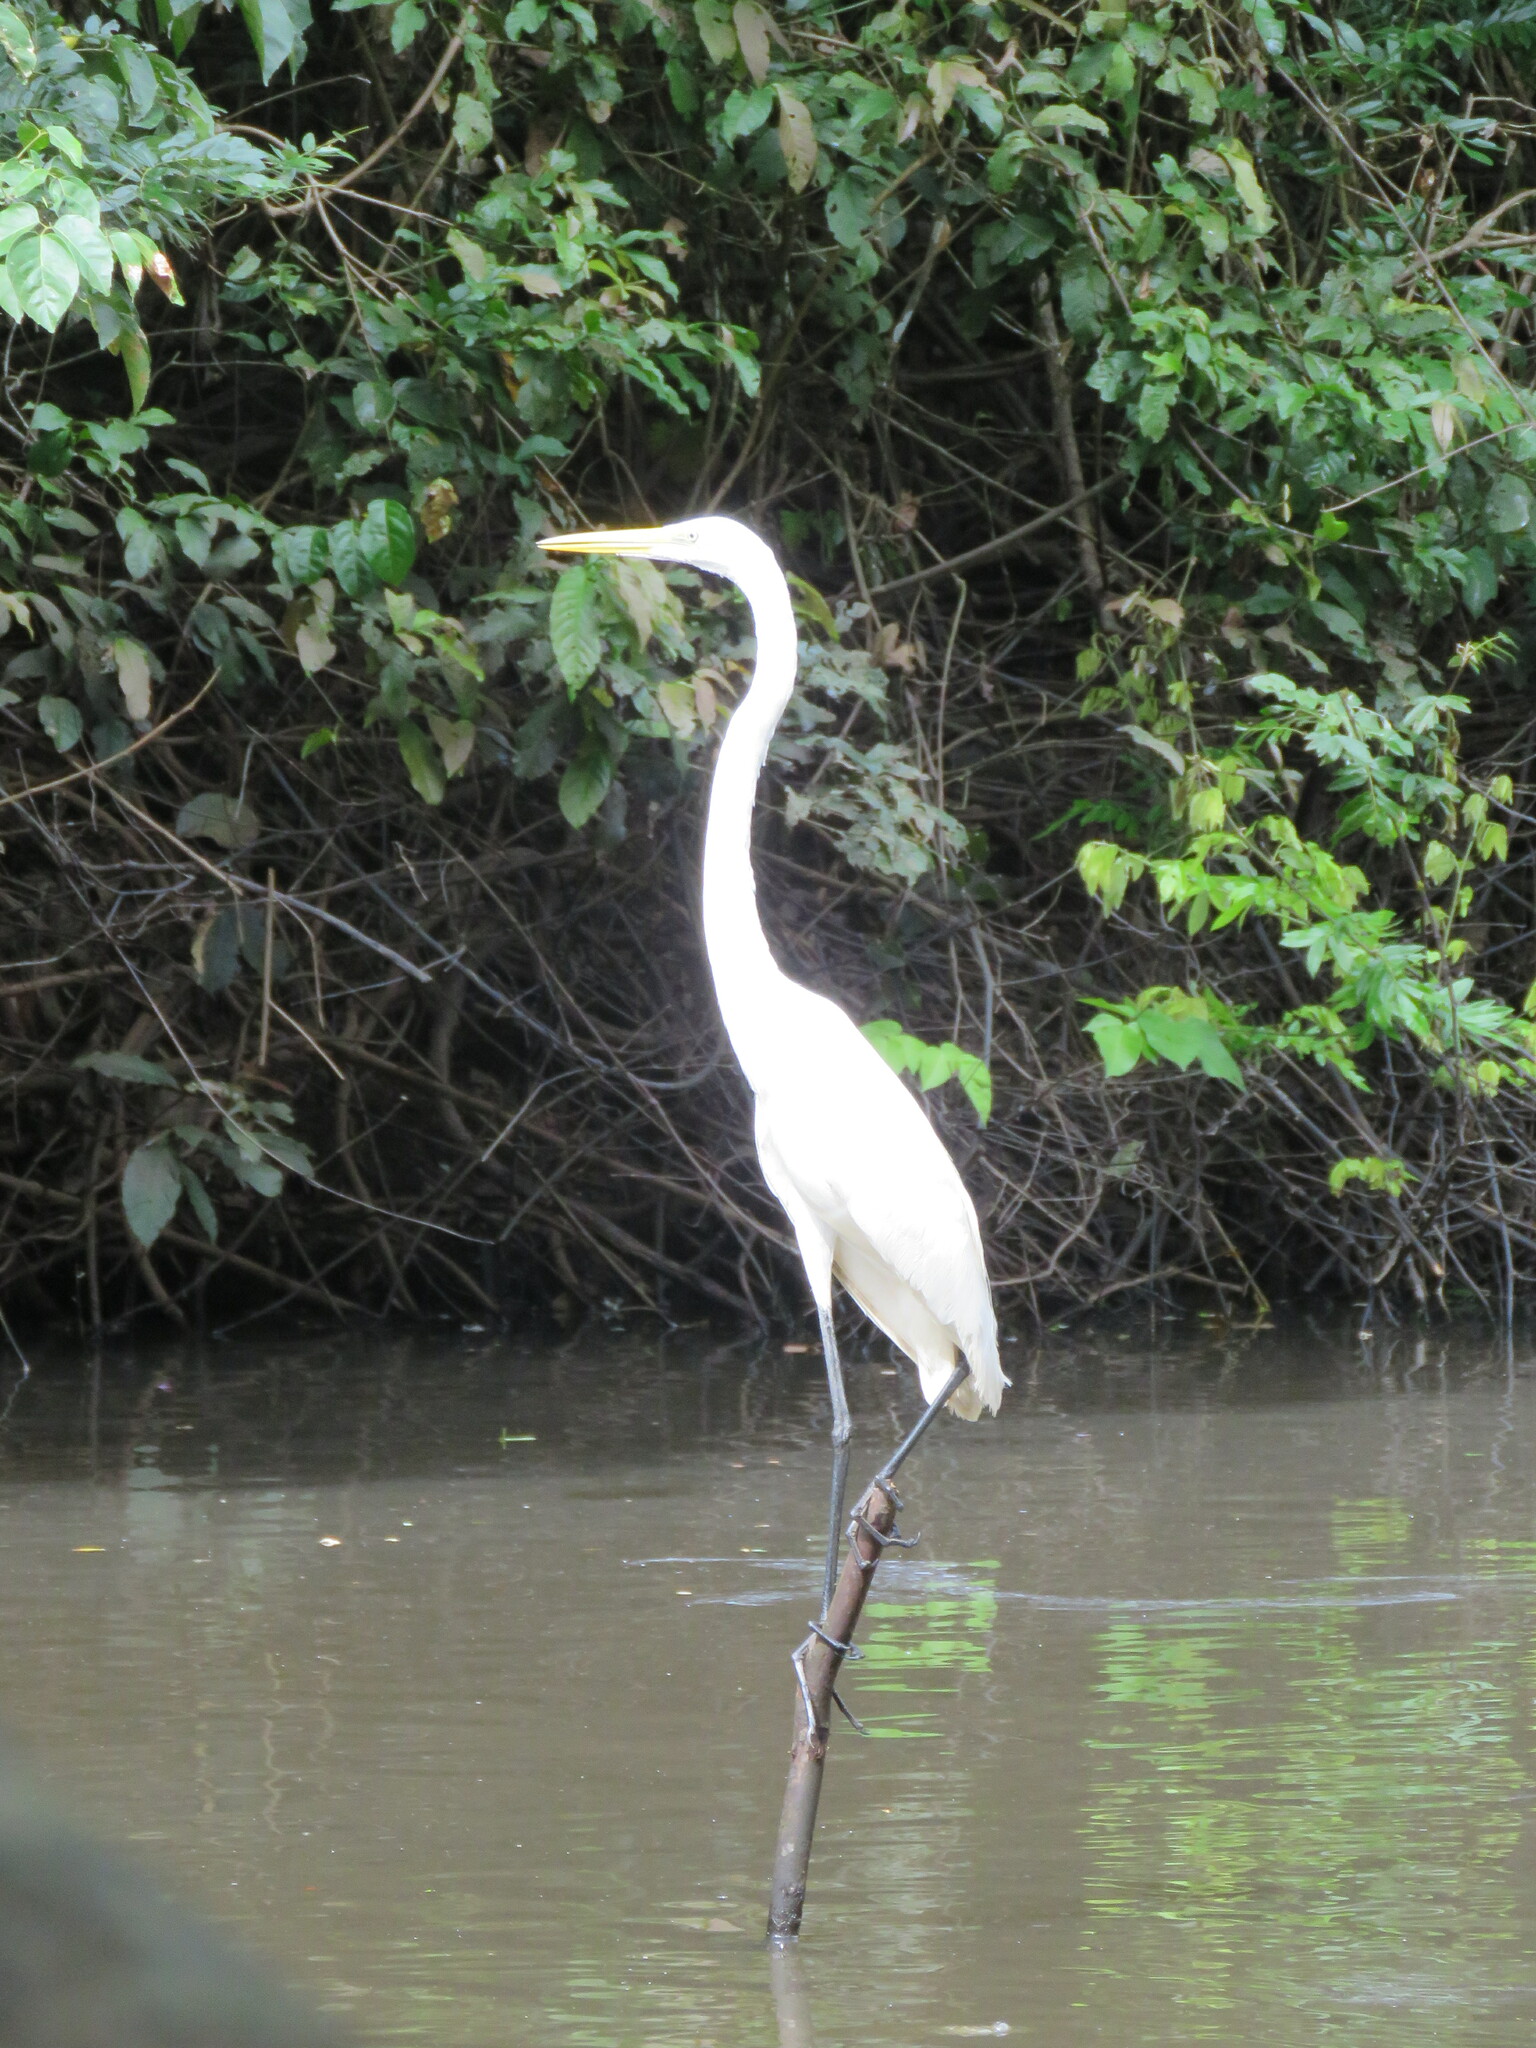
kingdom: Animalia
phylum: Chordata
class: Aves
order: Pelecaniformes
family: Ardeidae
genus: Ardea
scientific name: Ardea alba
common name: Great egret
